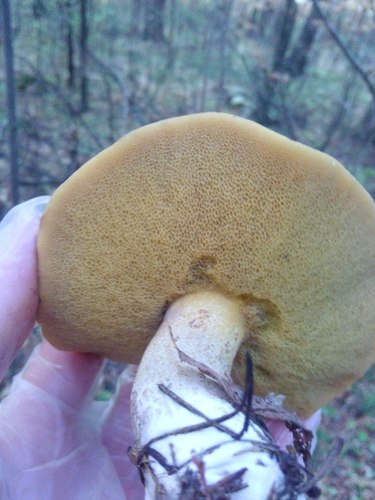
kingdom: Fungi
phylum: Basidiomycota
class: Agaricomycetes
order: Boletales
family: Suillaceae
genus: Suillus
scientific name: Suillus
